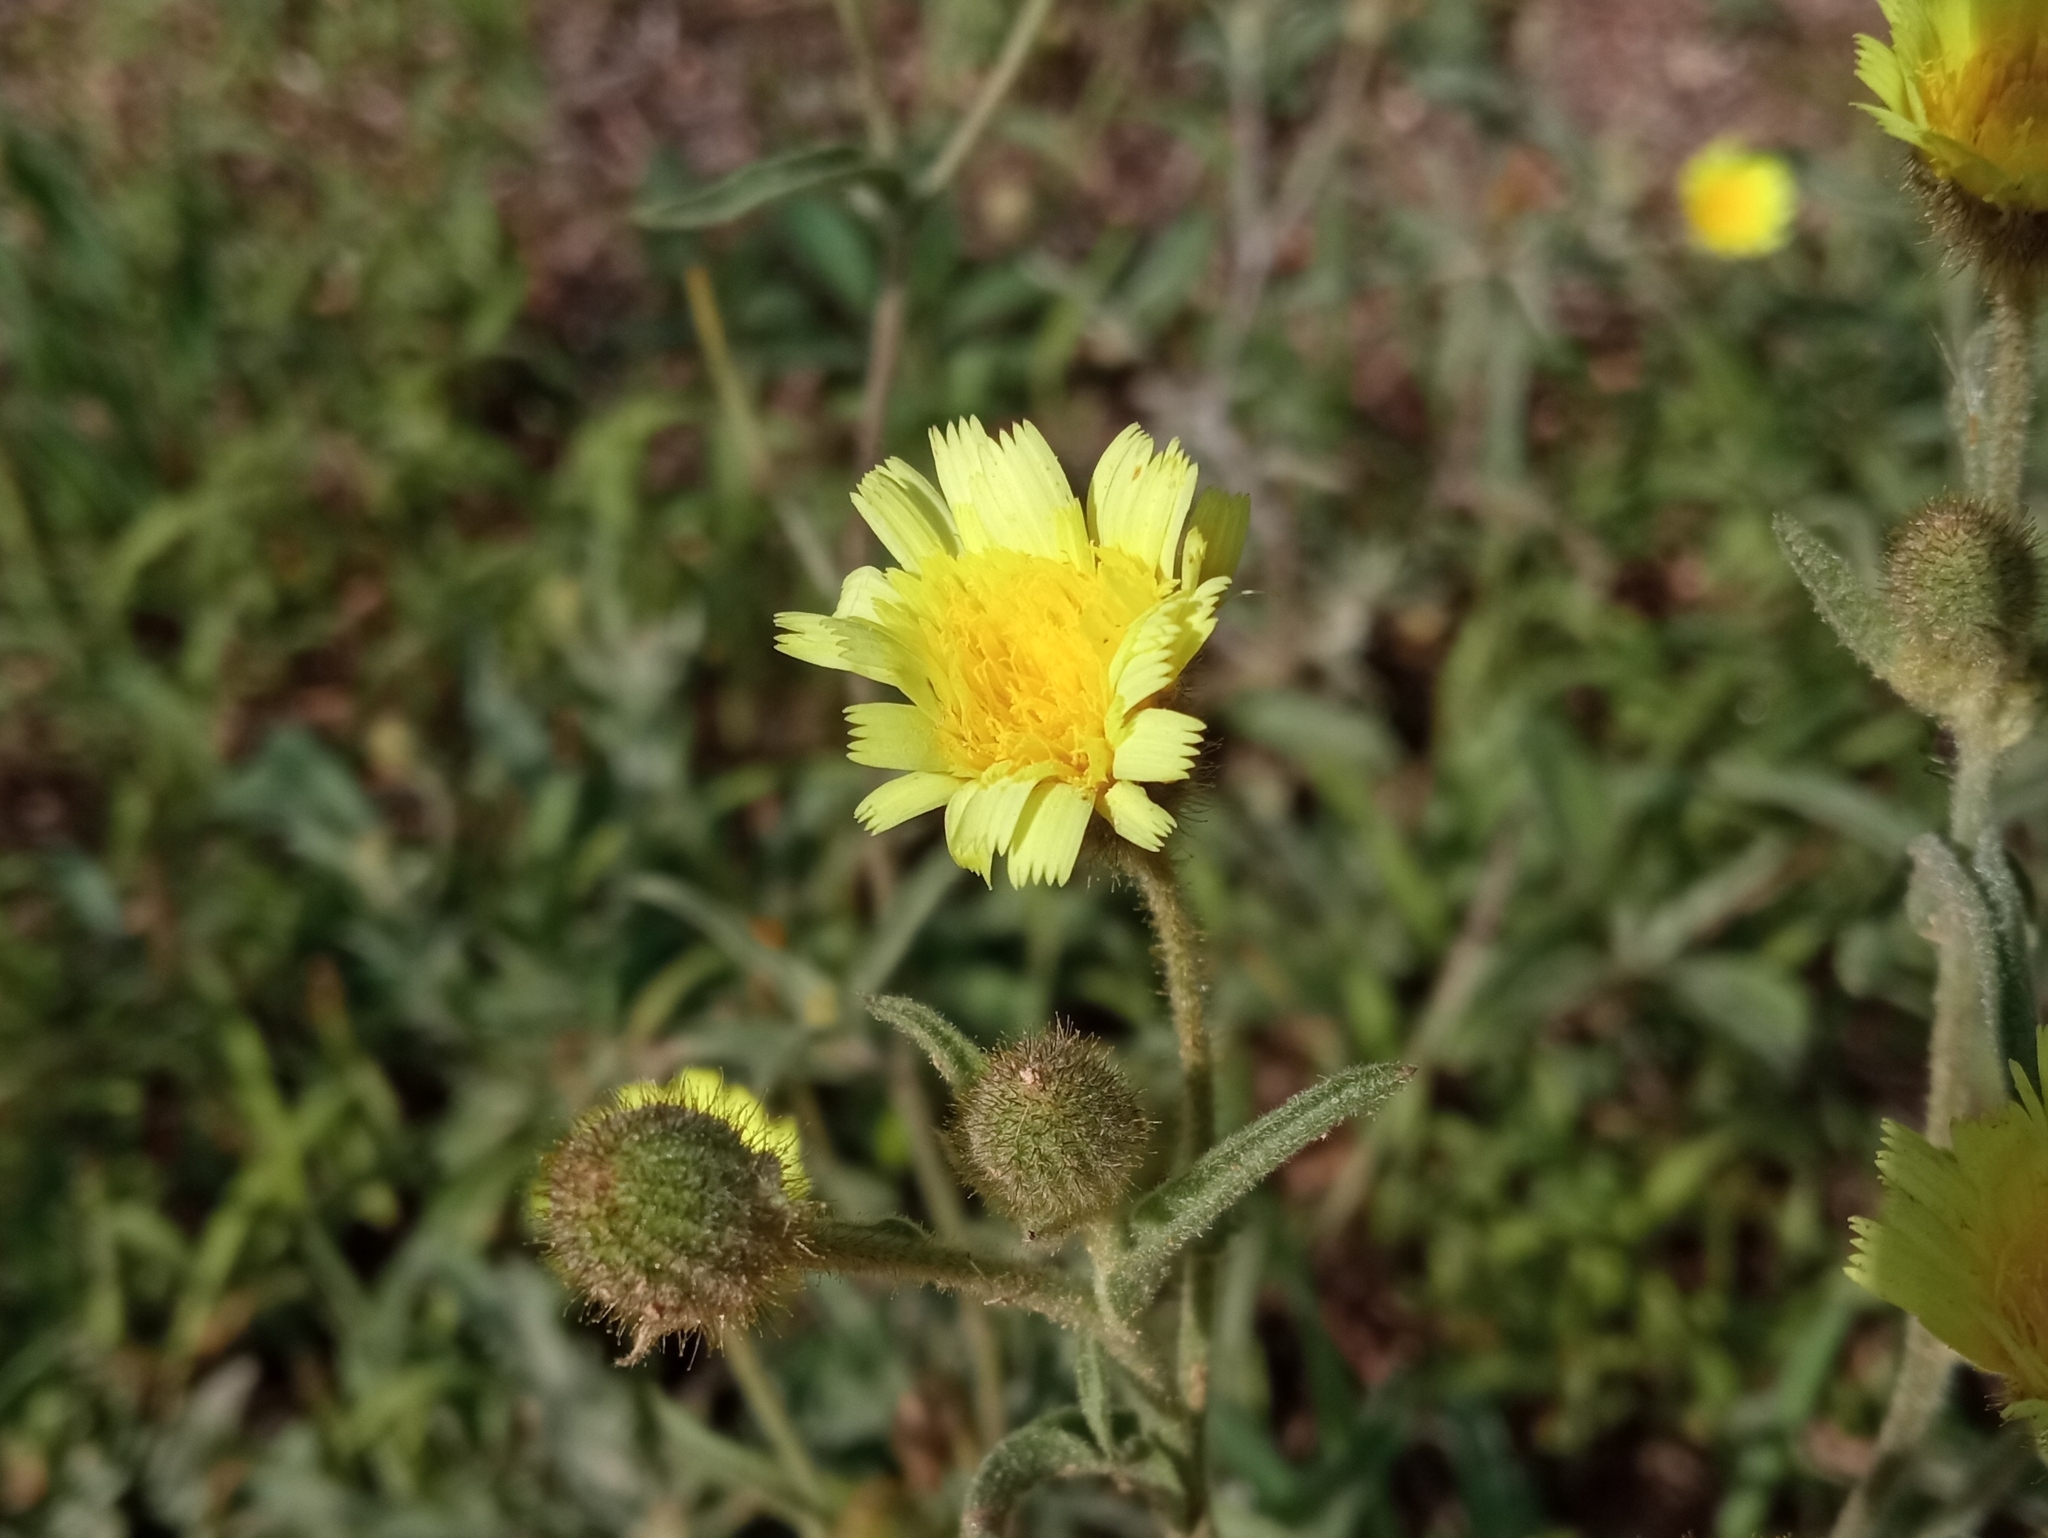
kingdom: Plantae
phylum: Tracheophyta
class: Magnoliopsida
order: Asterales
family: Asteraceae
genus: Andryala
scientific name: Andryala integrifolia
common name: Common andryala
